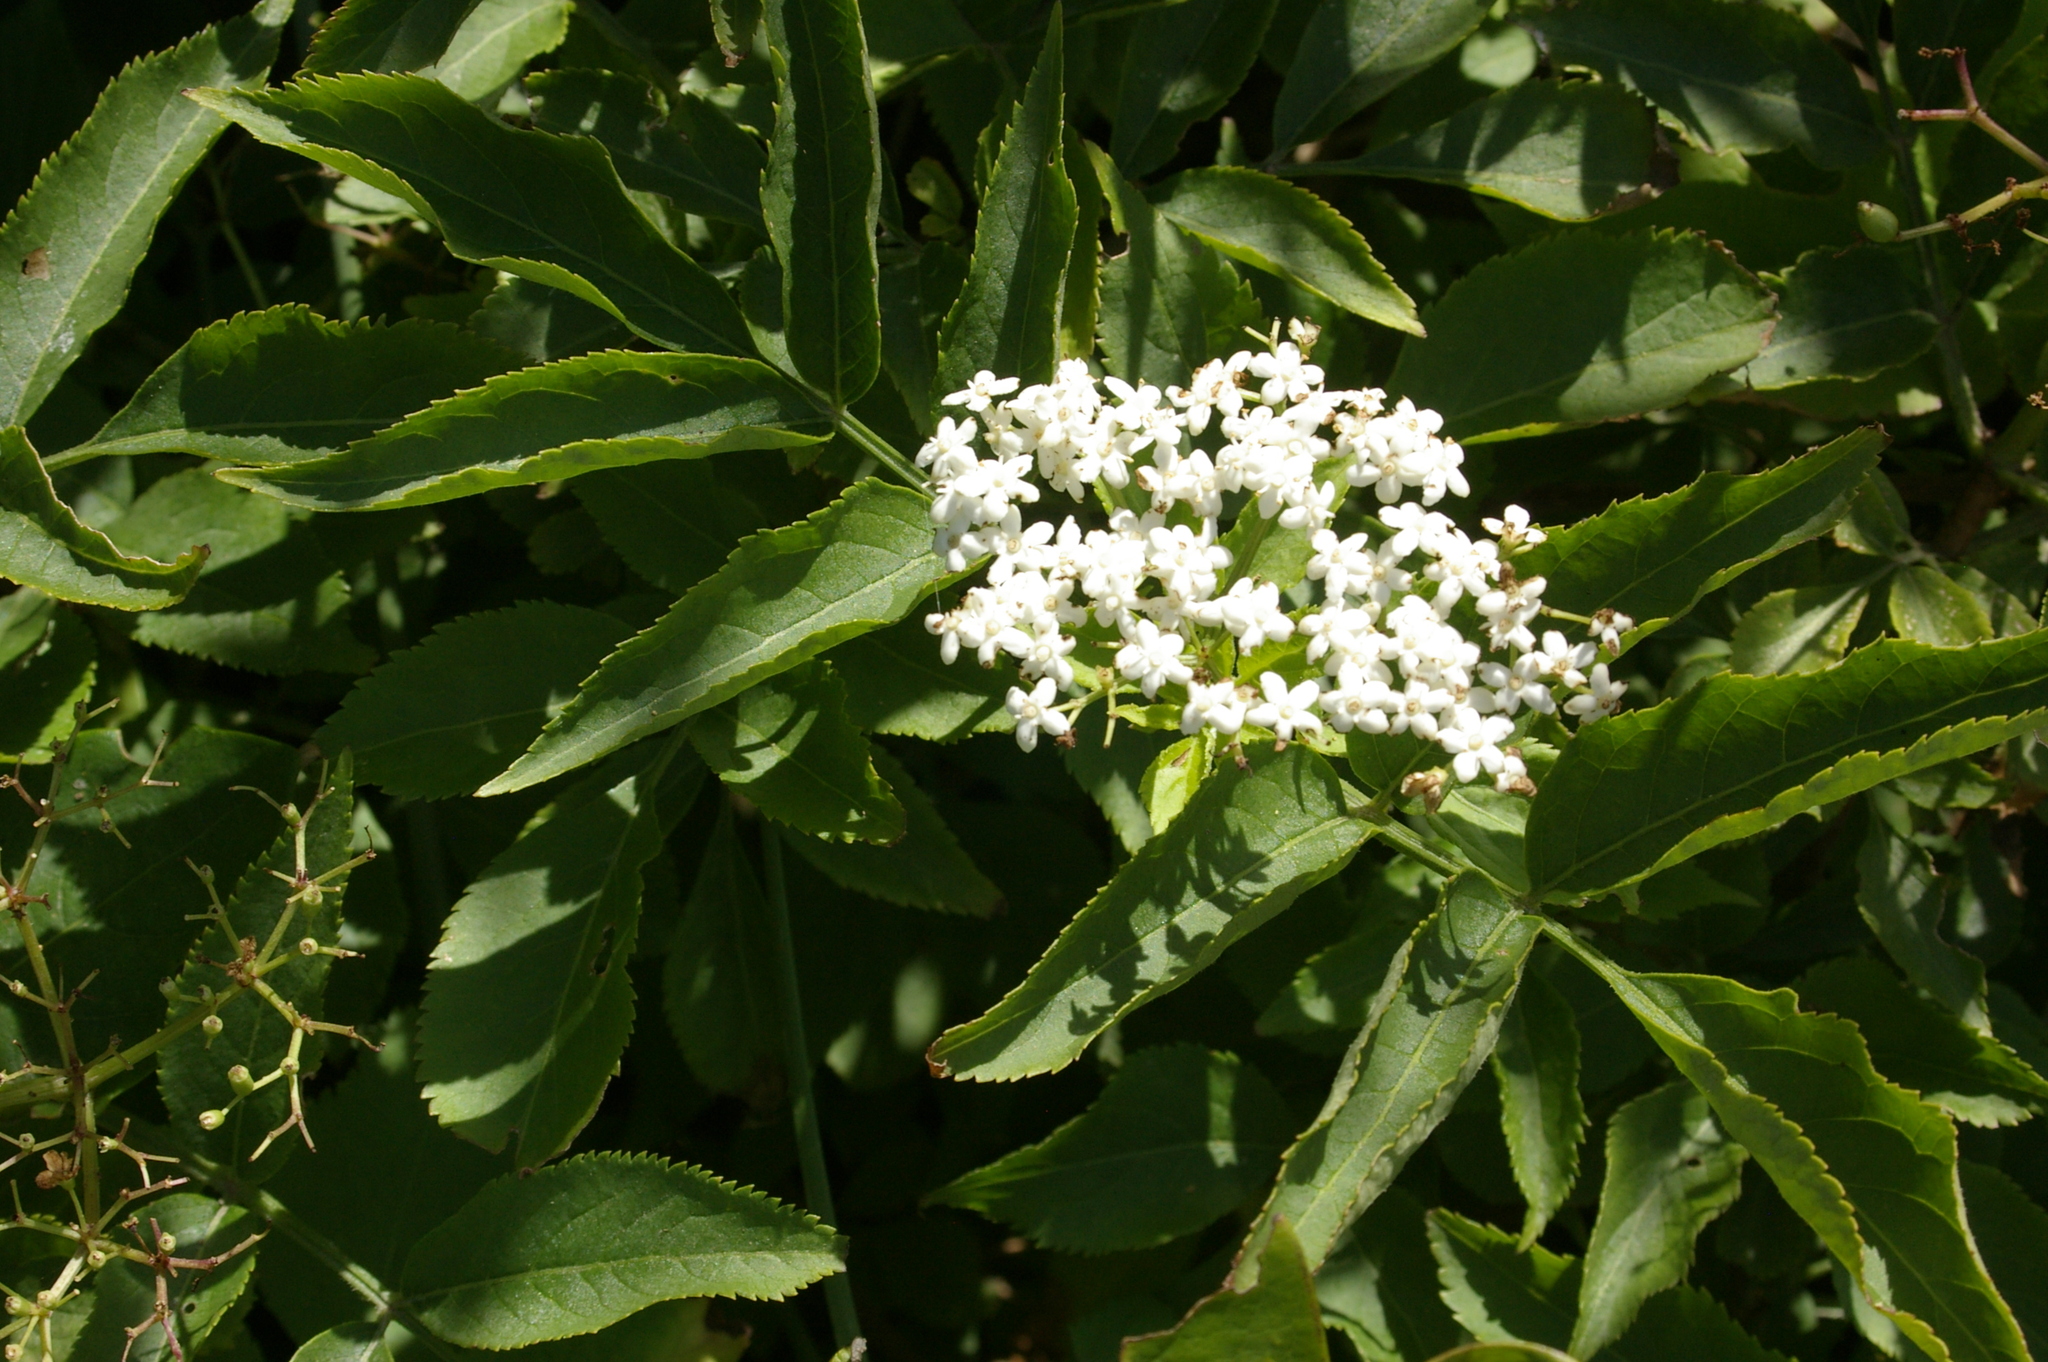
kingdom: Plantae
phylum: Tracheophyta
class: Magnoliopsida
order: Dipsacales
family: Viburnaceae
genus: Sambucus
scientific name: Sambucus nigra
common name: Elder
